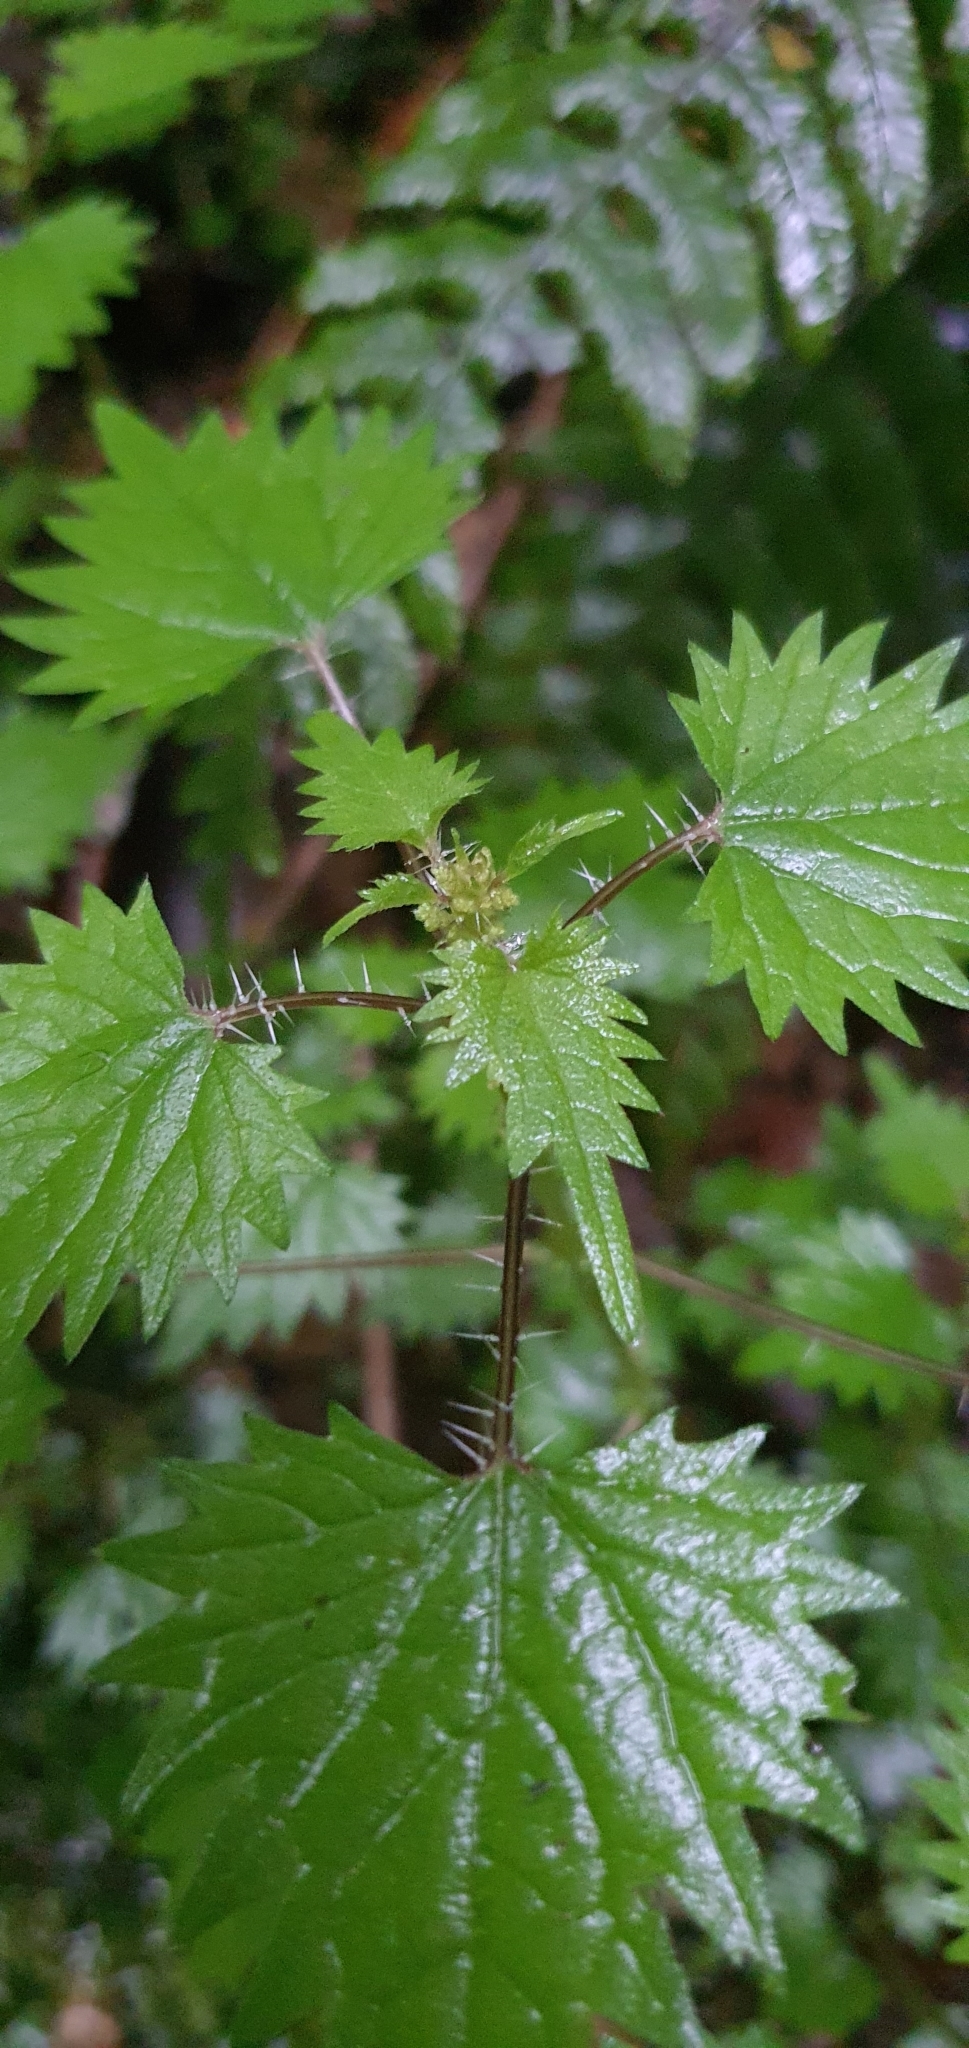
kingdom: Plantae
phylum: Tracheophyta
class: Magnoliopsida
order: Rosales
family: Urticaceae
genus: Urtica
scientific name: Urtica sykesii
